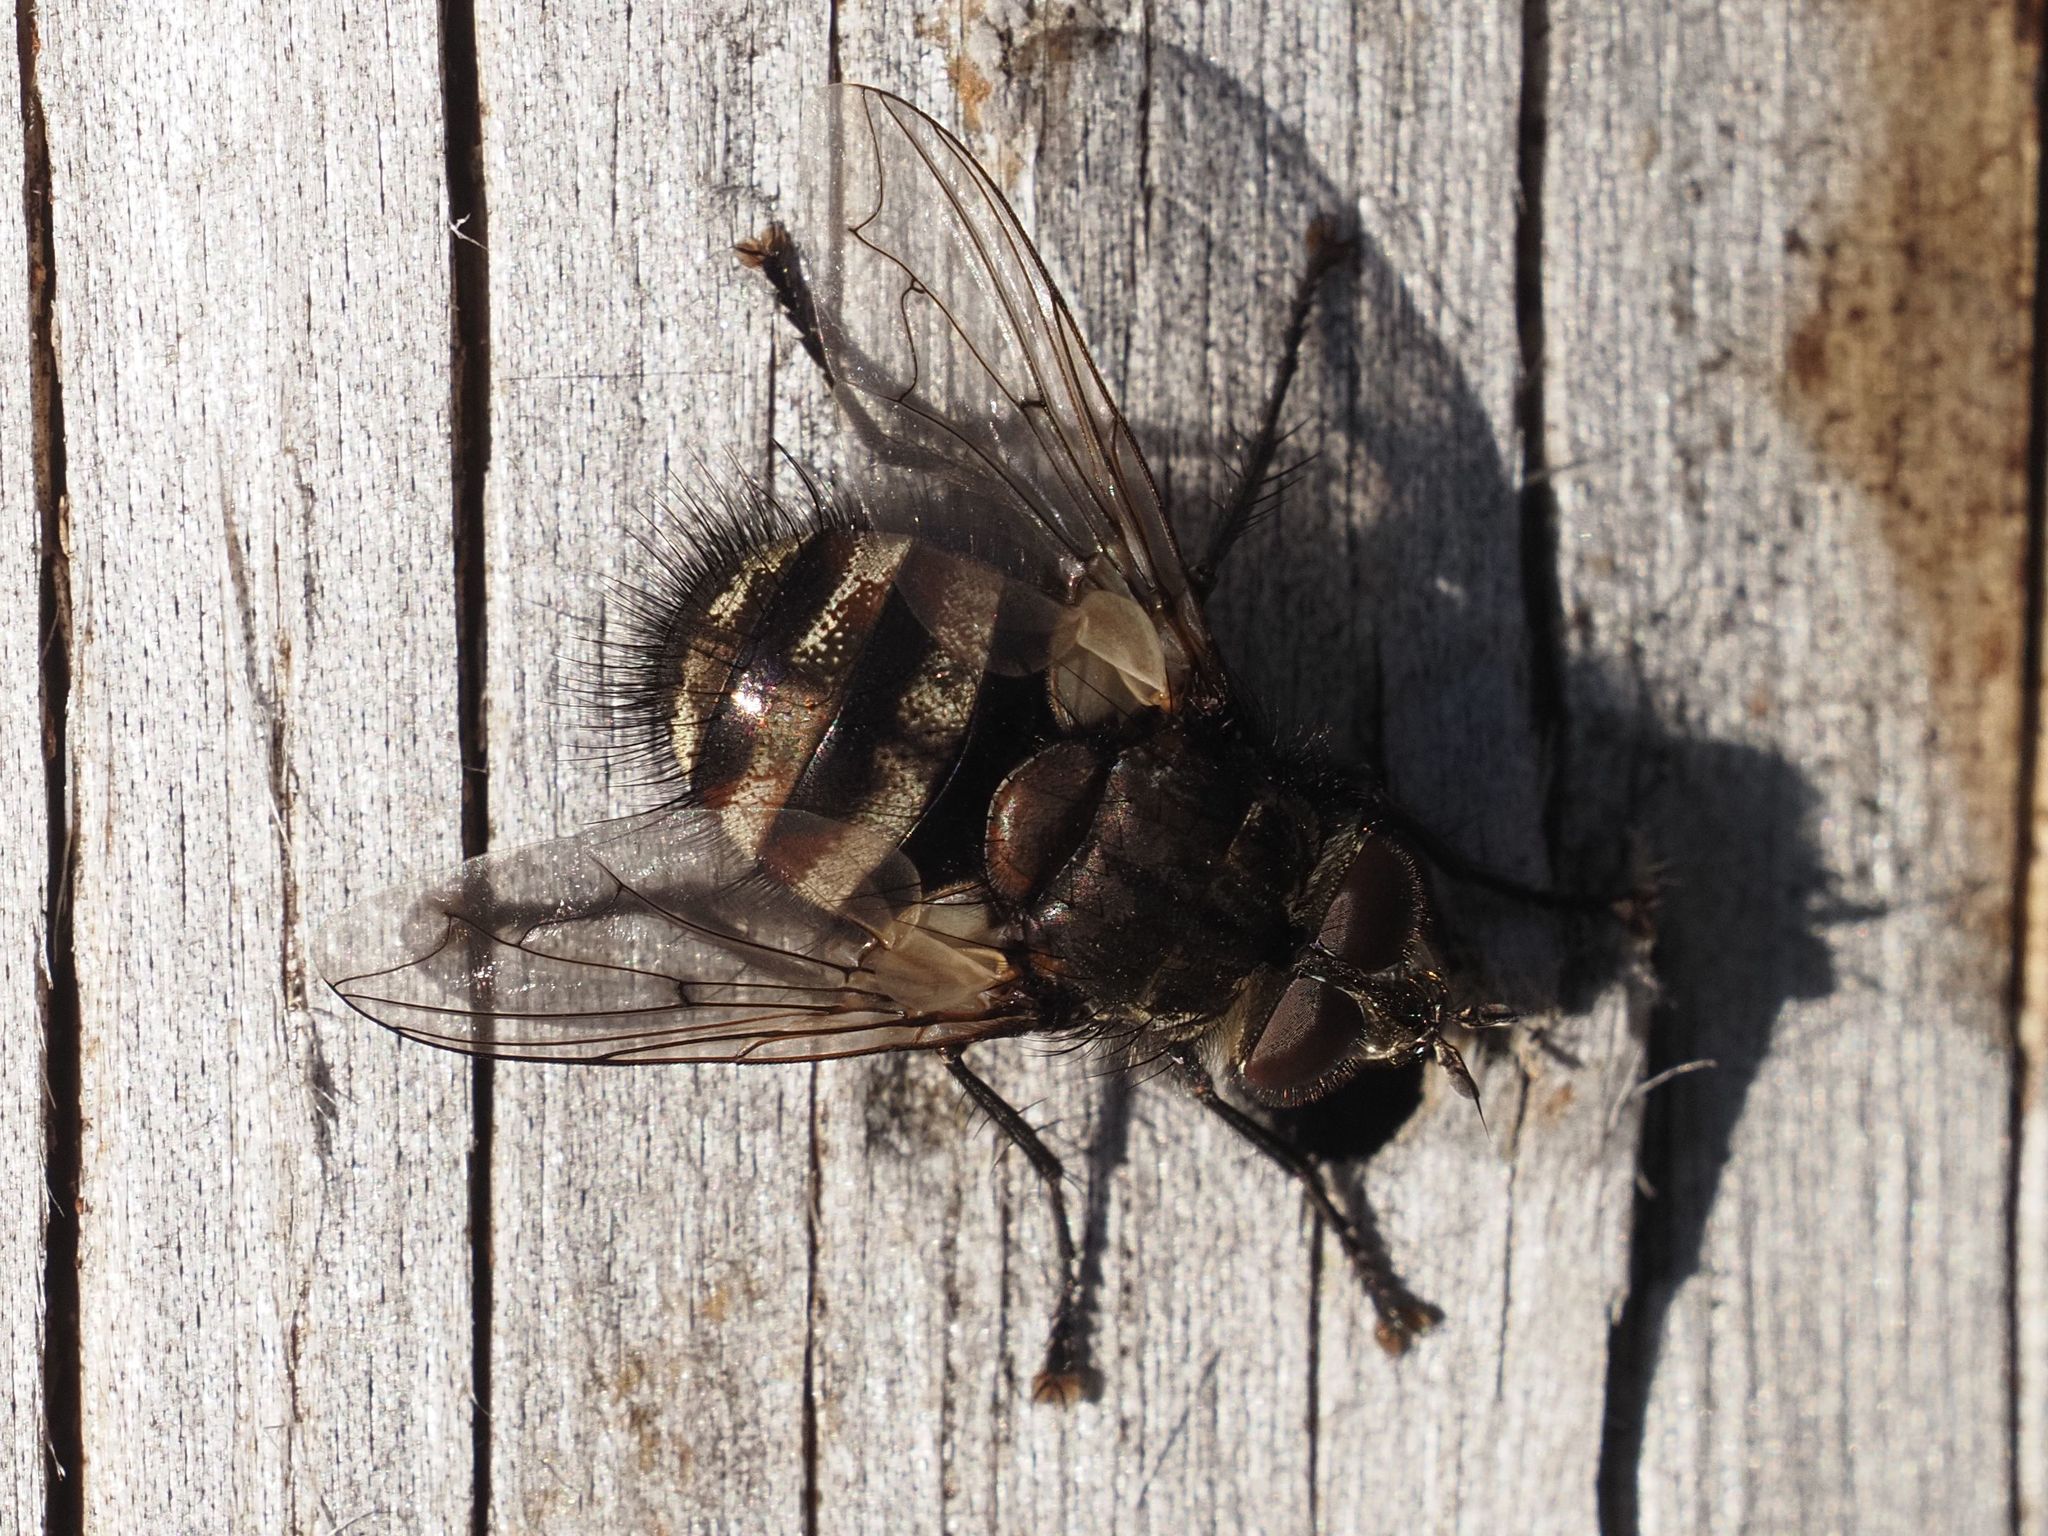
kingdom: Animalia
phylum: Arthropoda
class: Insecta
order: Diptera
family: Tachinidae
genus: Panzeria
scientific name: Panzeria puparum
